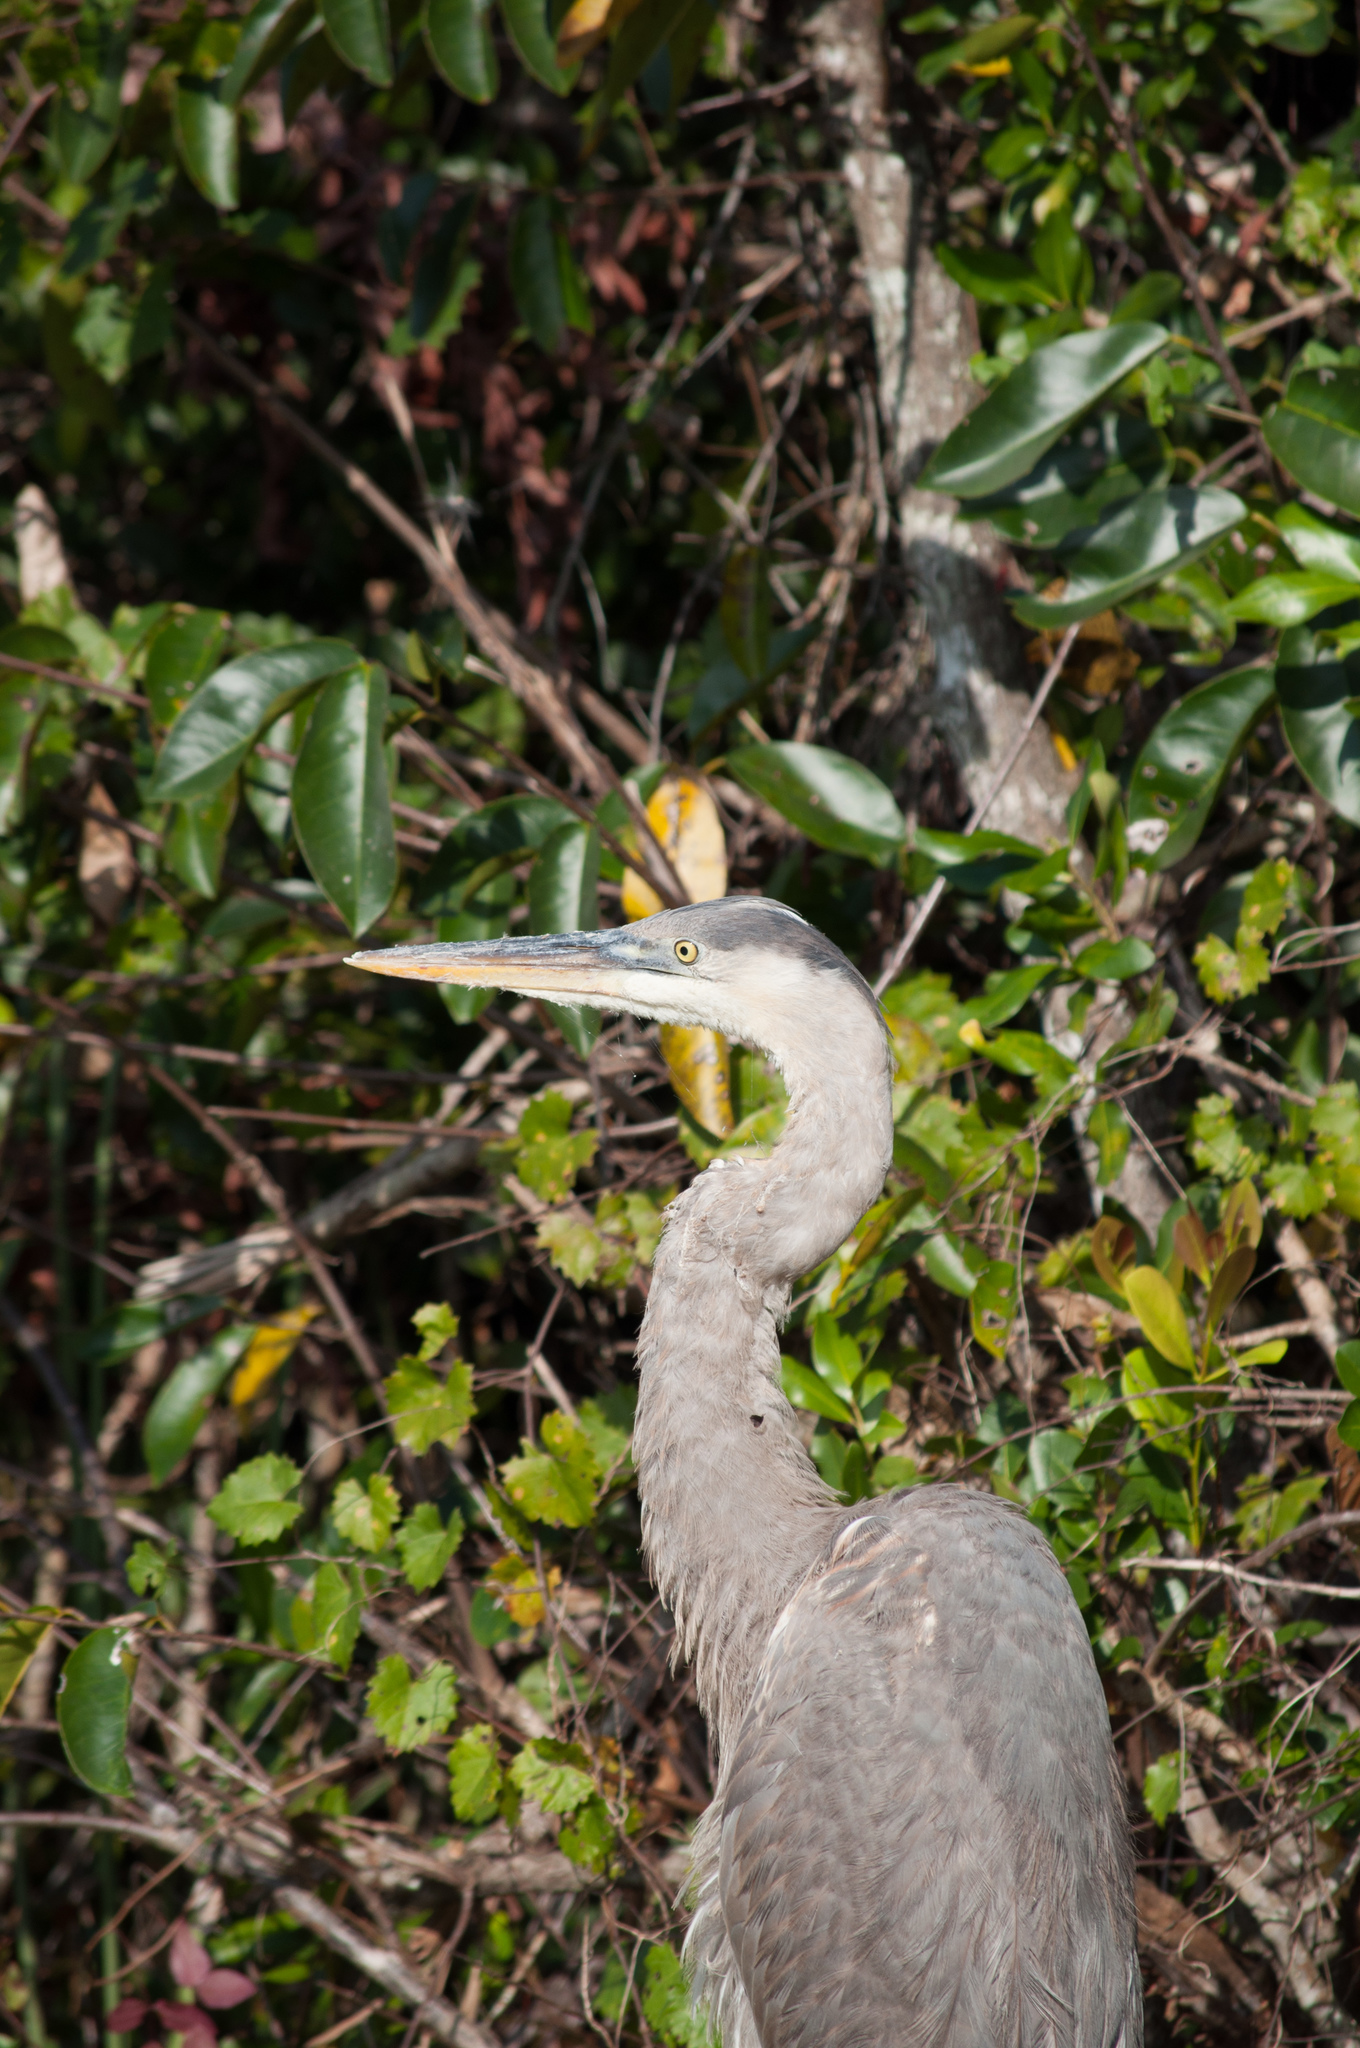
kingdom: Animalia
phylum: Chordata
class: Aves
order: Pelecaniformes
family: Ardeidae
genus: Ardea
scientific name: Ardea herodias
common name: Great blue heron
